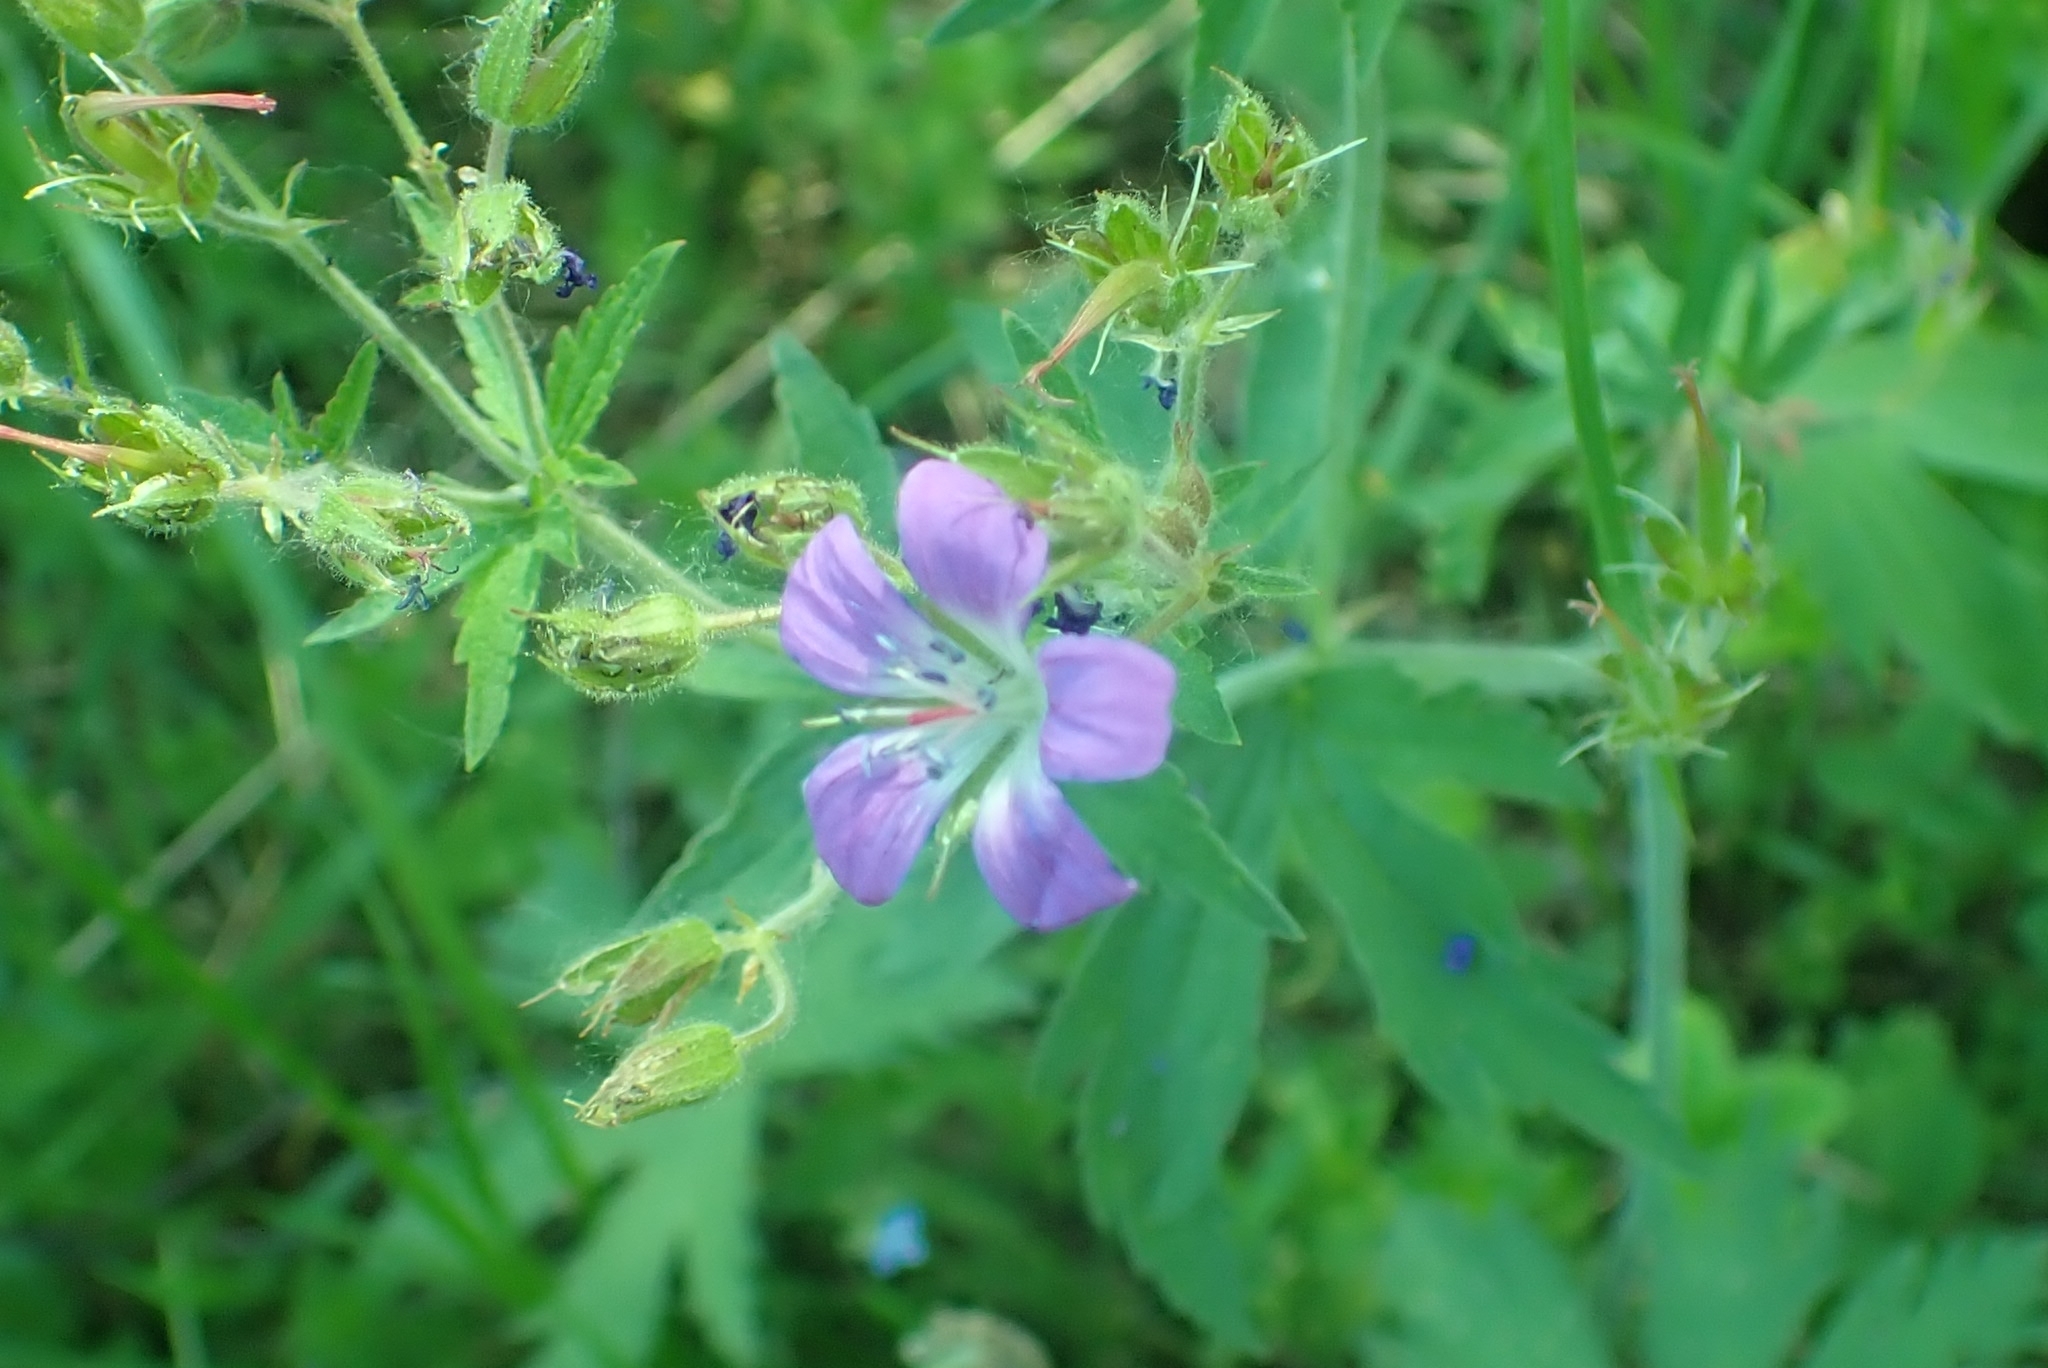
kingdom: Plantae
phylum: Tracheophyta
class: Magnoliopsida
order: Geraniales
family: Geraniaceae
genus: Geranium
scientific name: Geranium sylvaticum
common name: Wood crane's-bill
